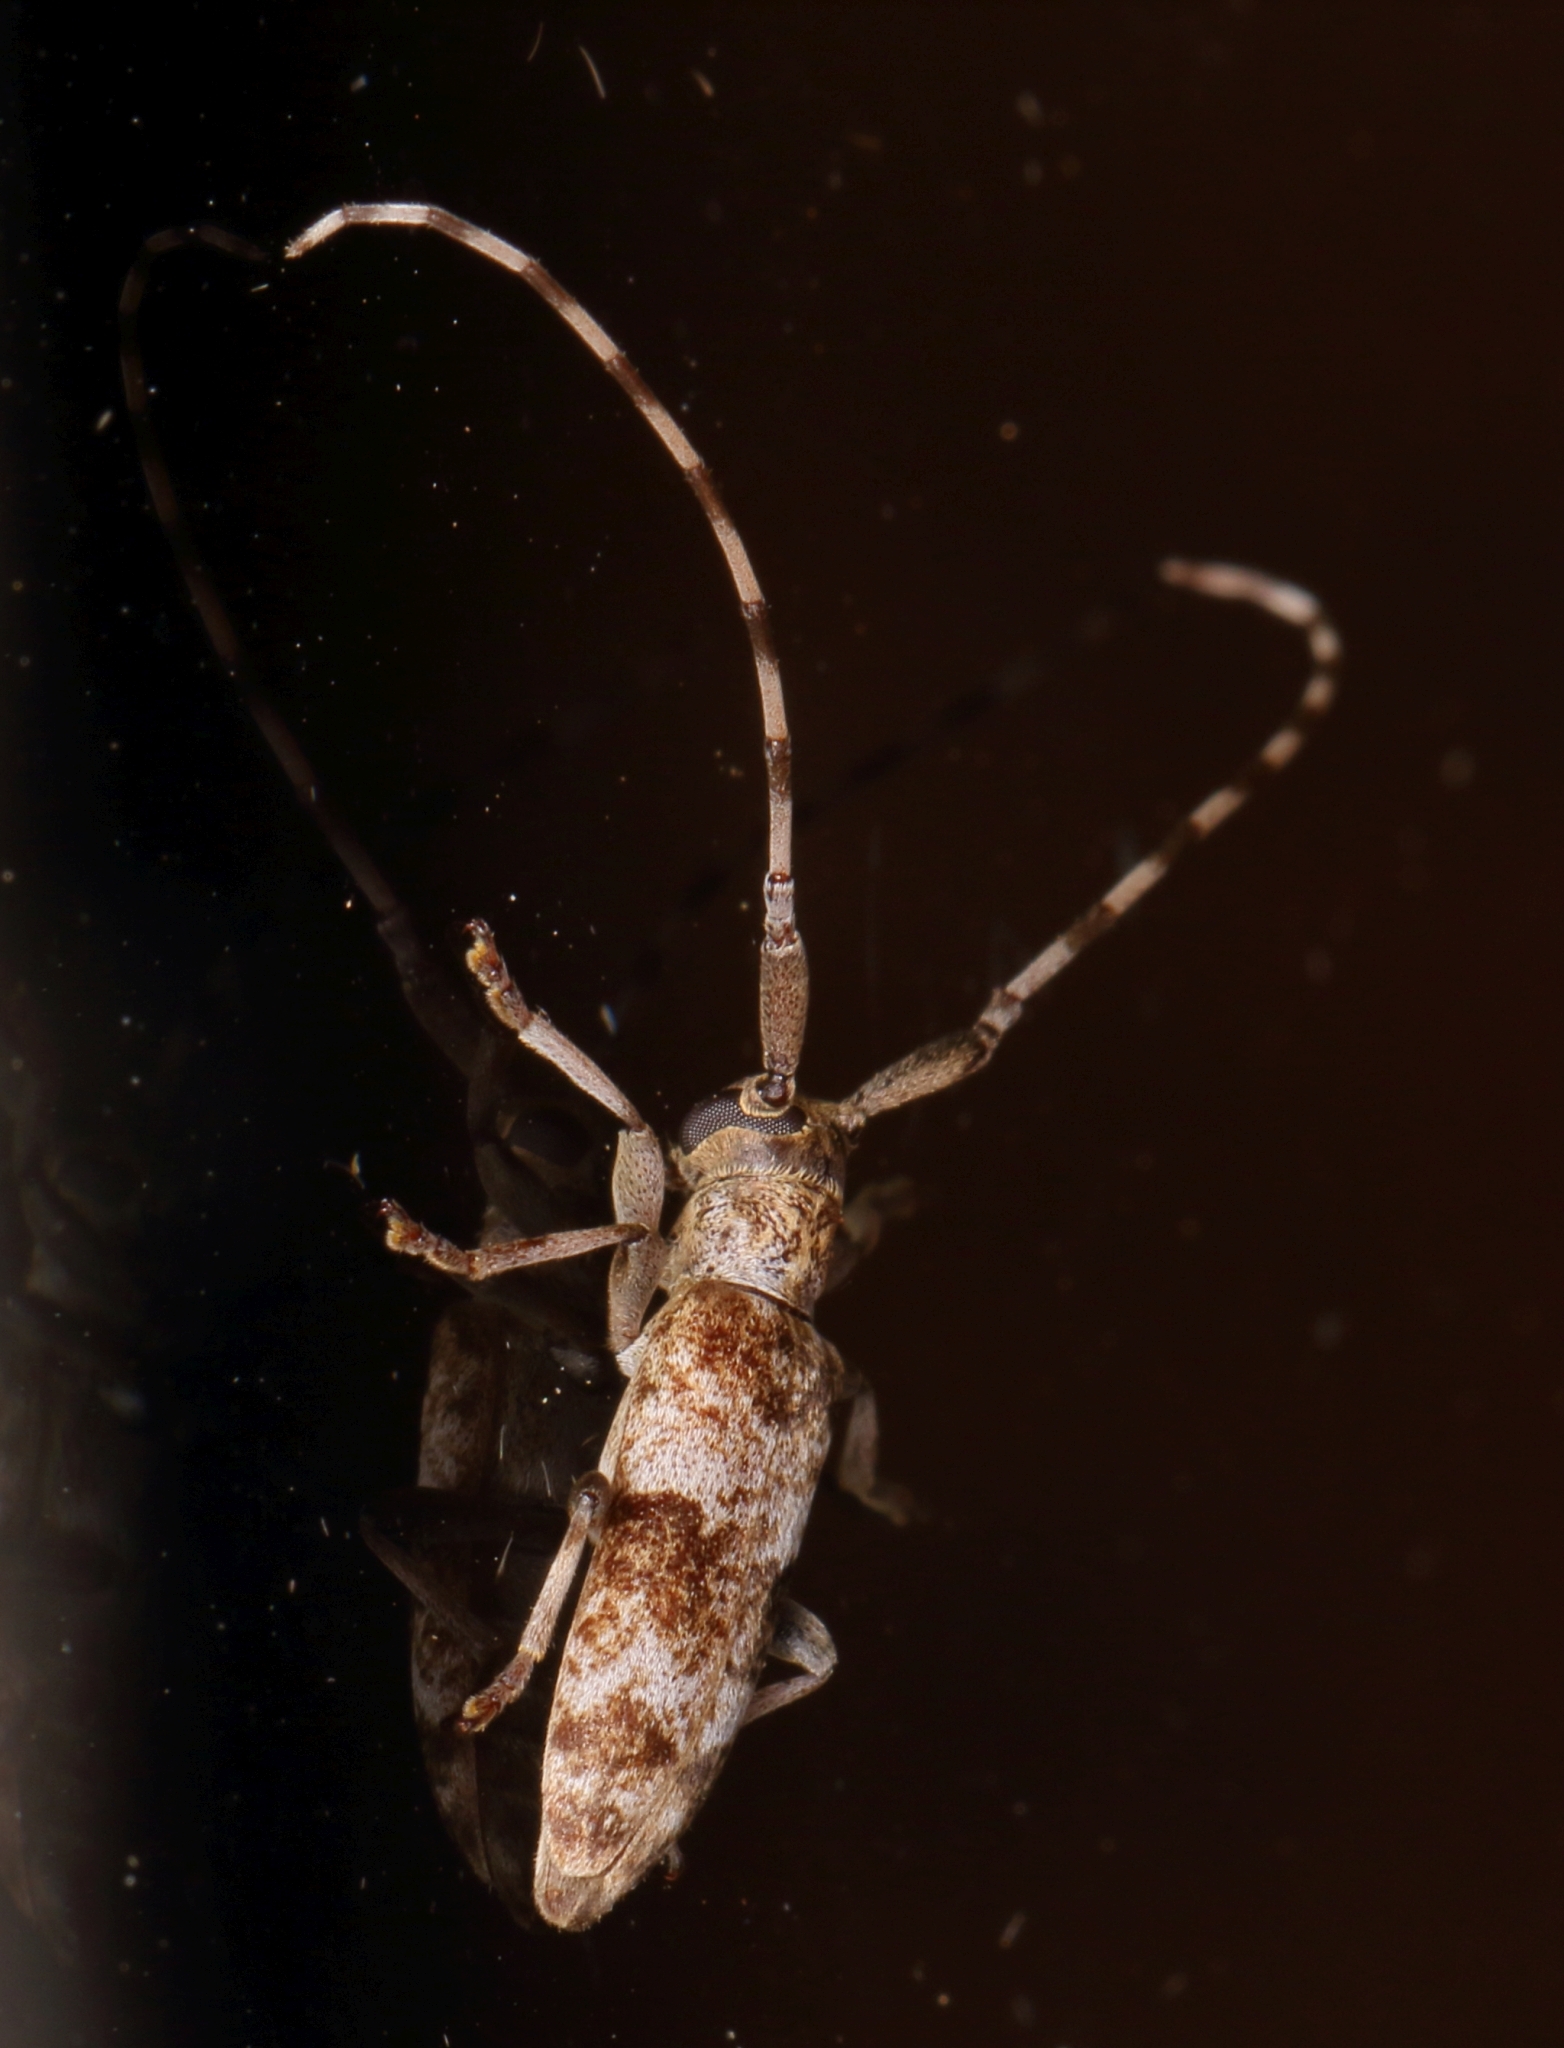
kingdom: Animalia
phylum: Arthropoda
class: Insecta
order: Coleoptera
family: Cerambycidae
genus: Eunidia
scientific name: Eunidia bifasciata
